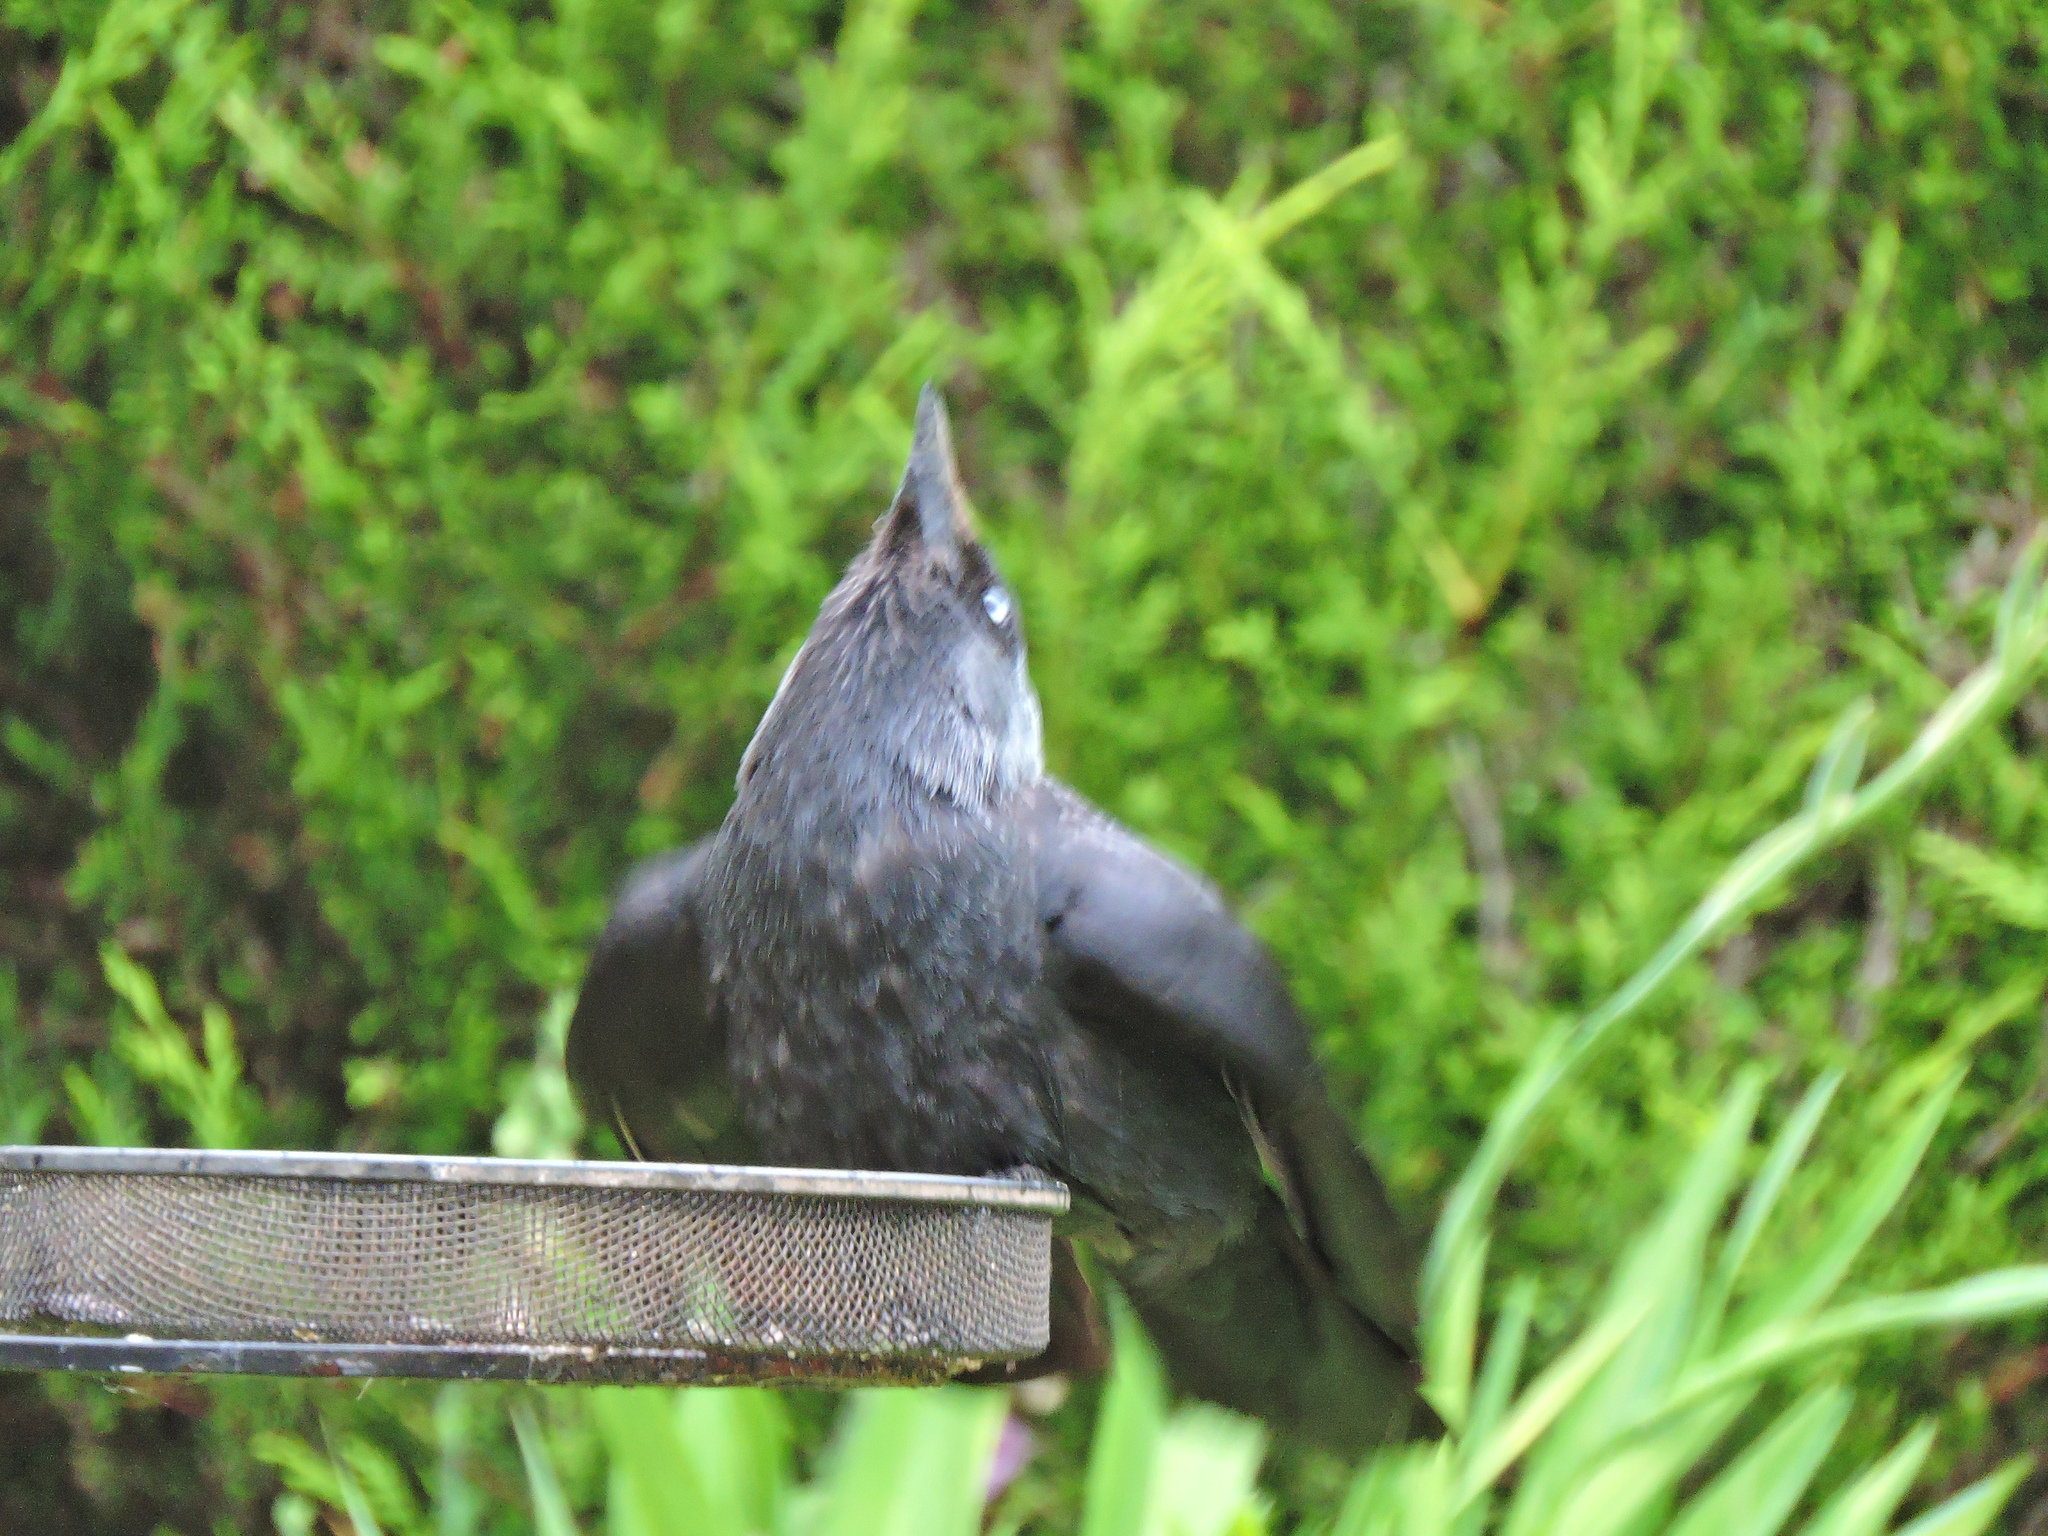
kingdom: Animalia
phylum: Chordata
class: Aves
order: Passeriformes
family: Corvidae
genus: Coloeus
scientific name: Coloeus monedula
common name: Western jackdaw
